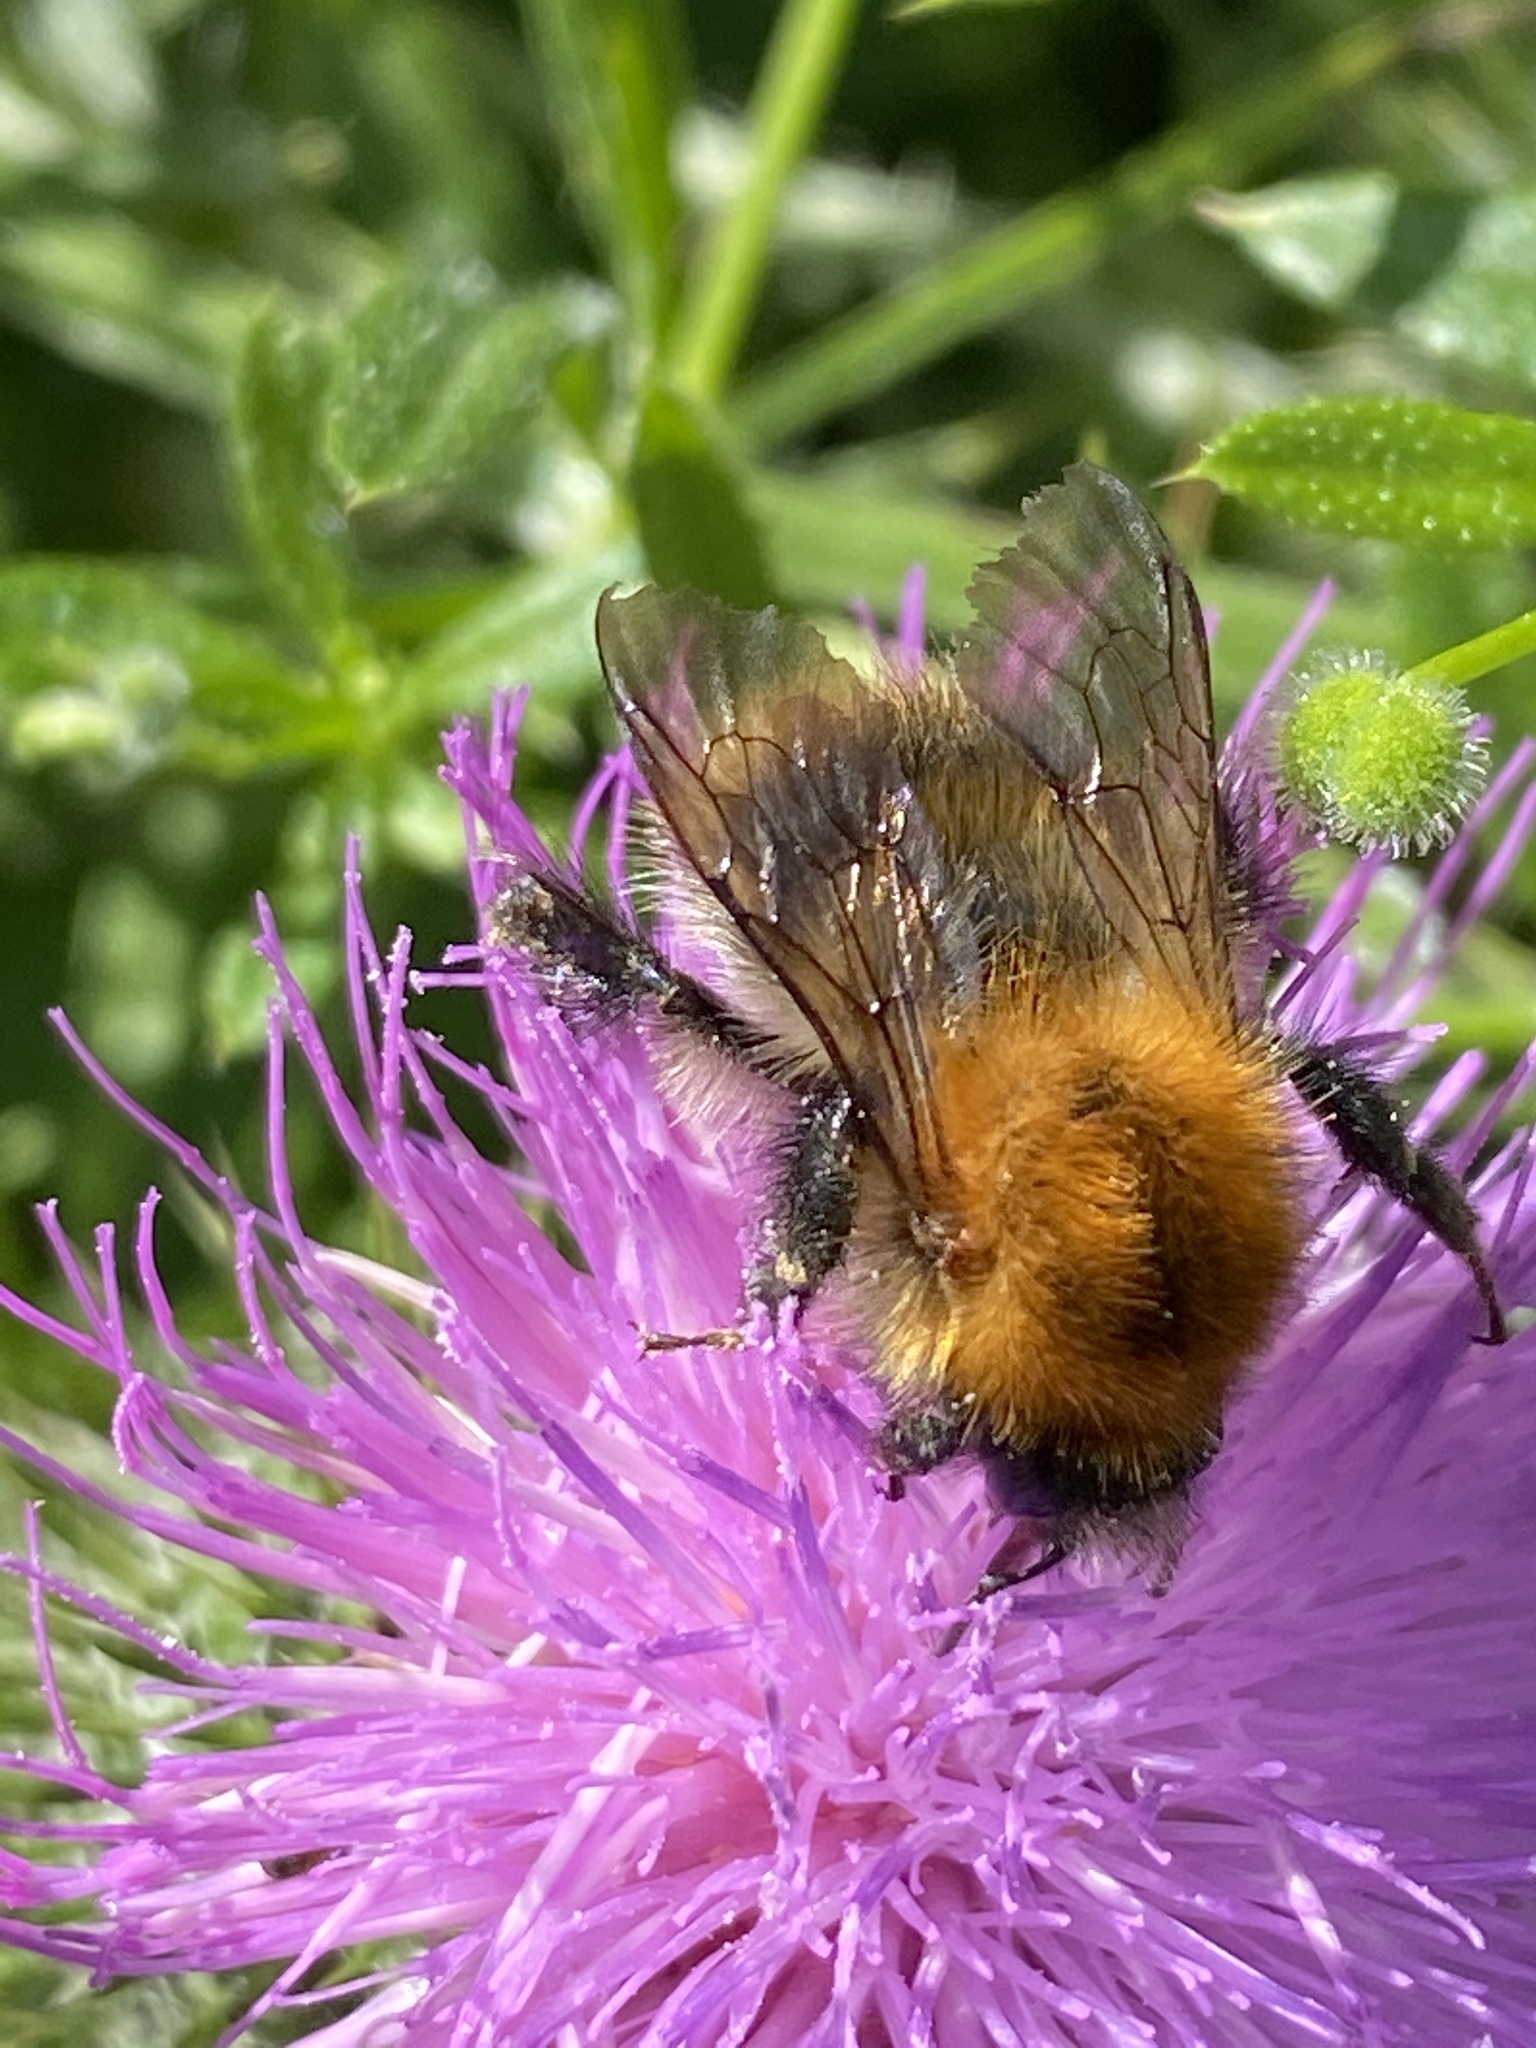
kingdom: Animalia
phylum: Arthropoda
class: Insecta
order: Hymenoptera
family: Apidae
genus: Bombus
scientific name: Bombus pascuorum
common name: Common carder bee
